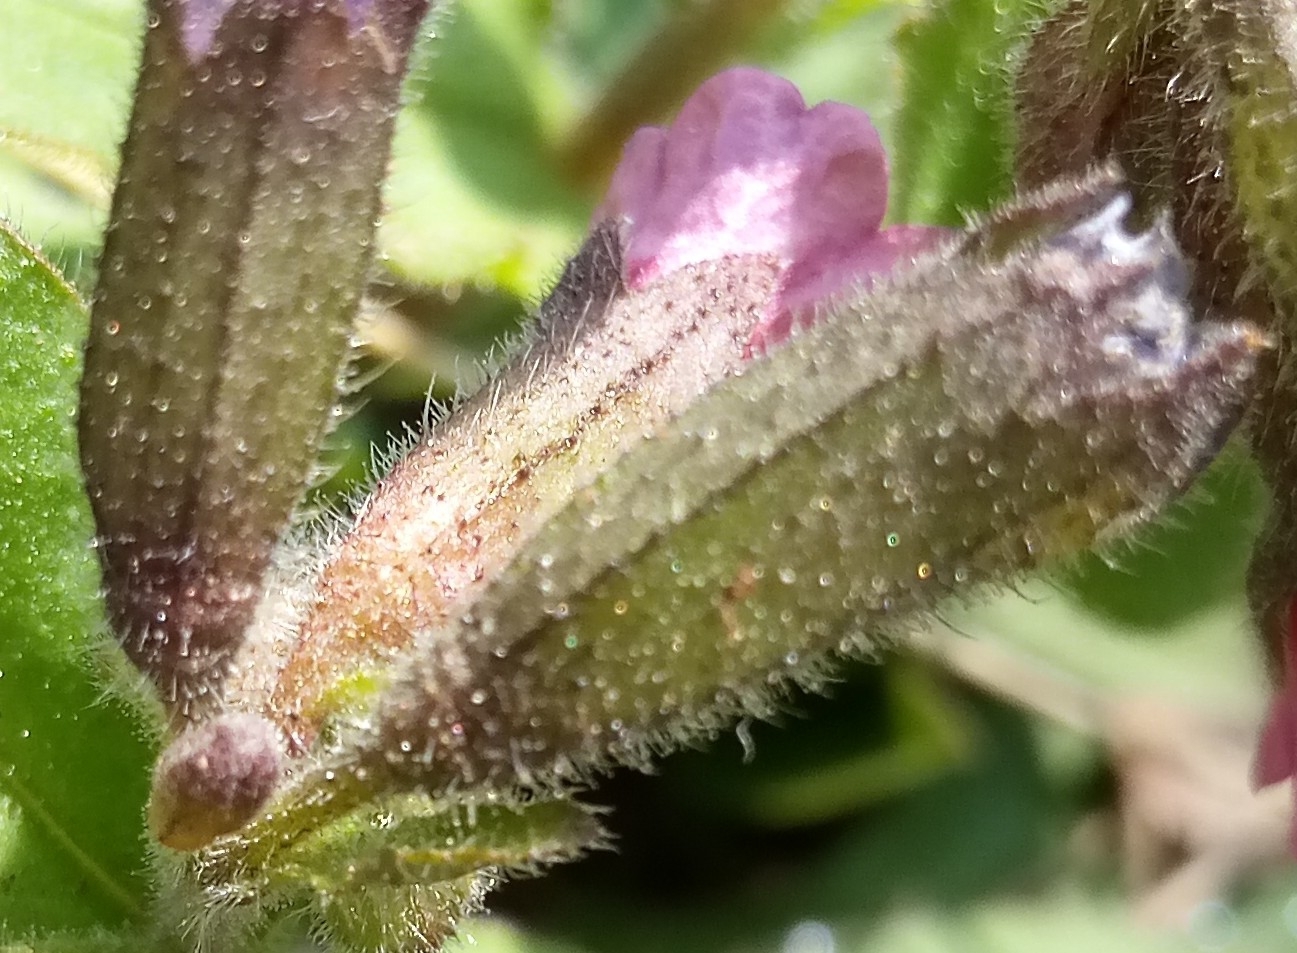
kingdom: Plantae
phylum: Tracheophyta
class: Magnoliopsida
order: Boraginales
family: Boraginaceae
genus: Pulmonaria
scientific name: Pulmonaria obscura
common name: Suffolk lungwort
